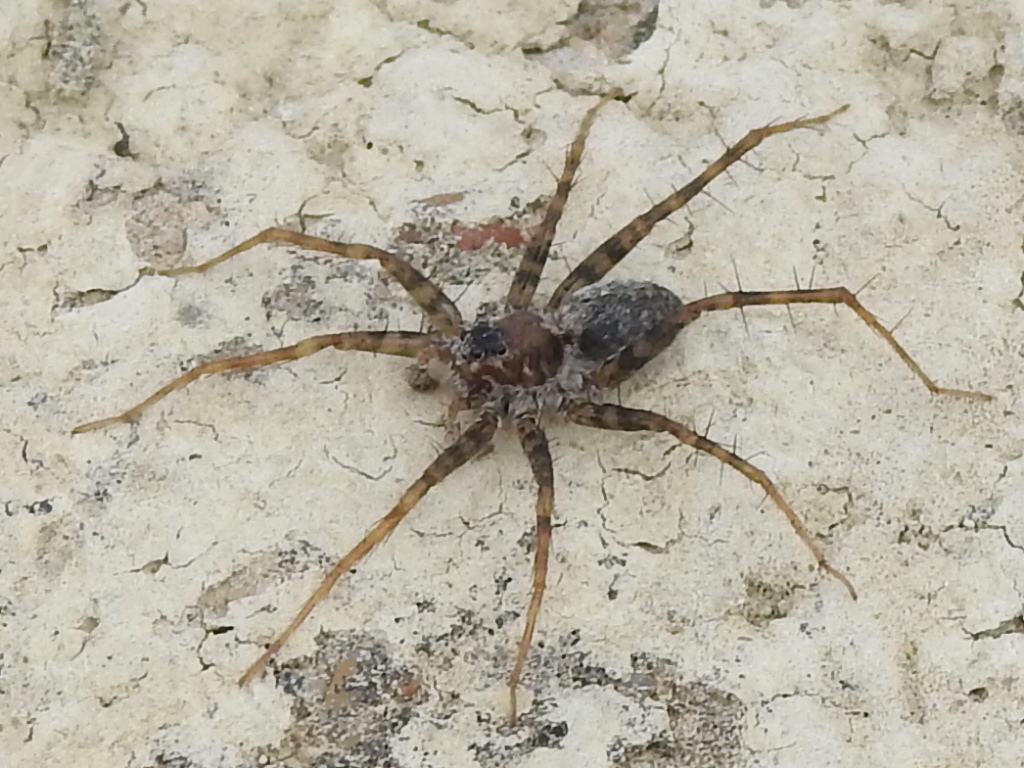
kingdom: Animalia
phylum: Arthropoda
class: Arachnida
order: Araneae
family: Lycosidae
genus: Pardosa
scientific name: Pardosa mercurialis
